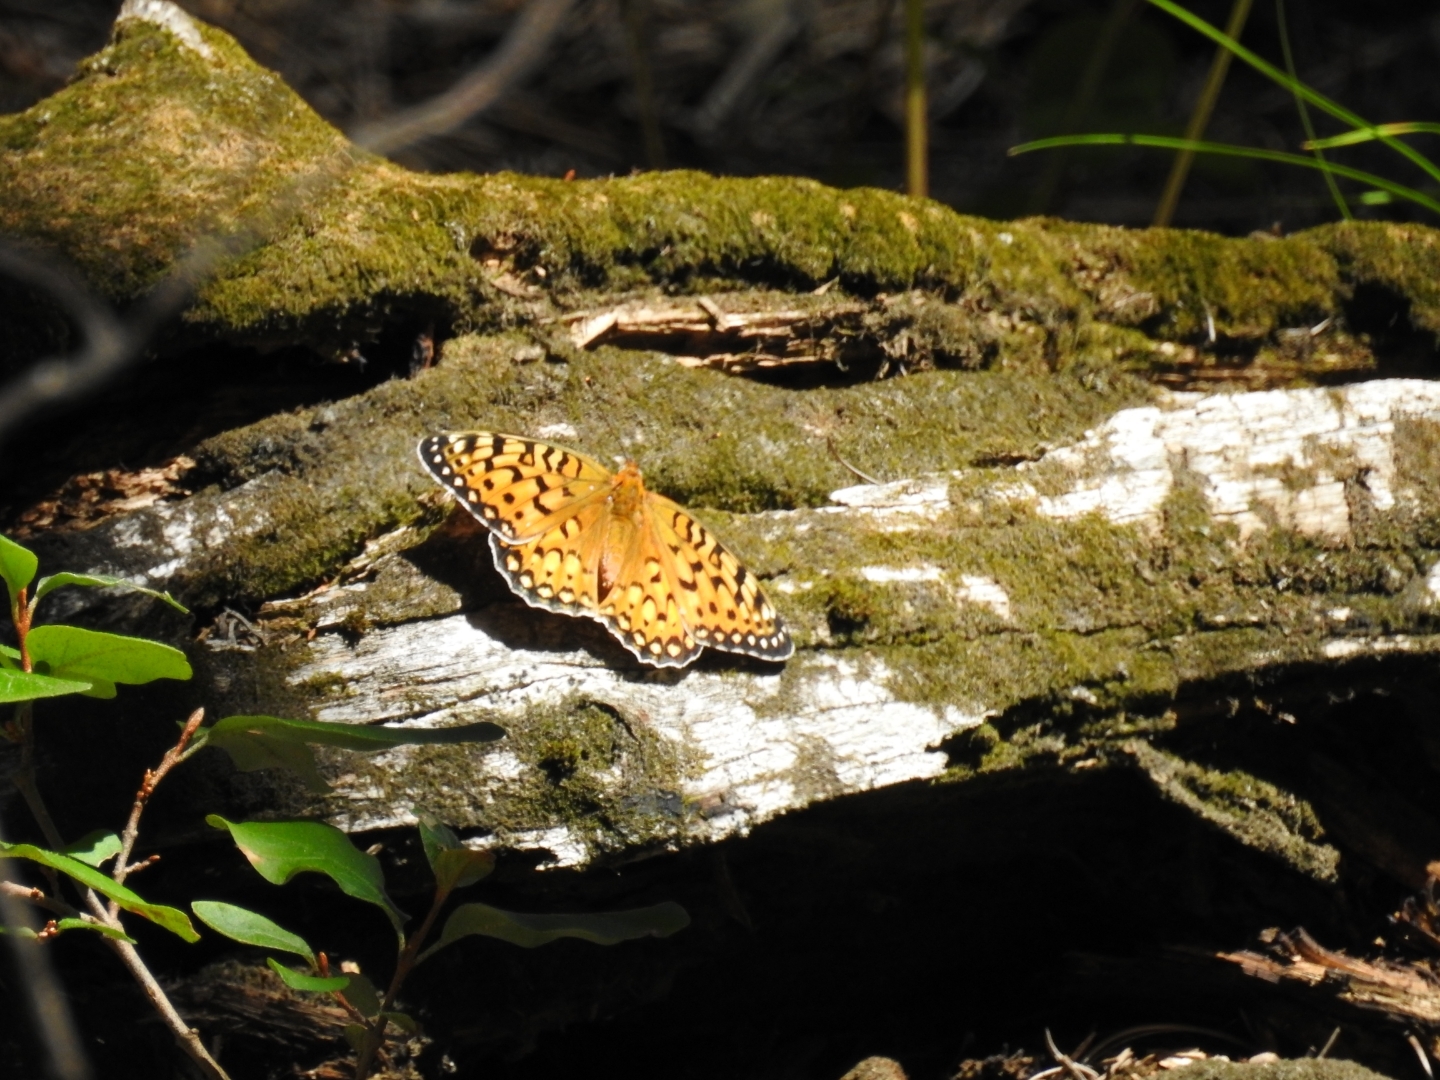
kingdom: Animalia
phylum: Arthropoda
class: Insecta
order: Lepidoptera
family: Nymphalidae
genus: Speyeria
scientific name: Speyeria edwardsii
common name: Edwards' fritillary
